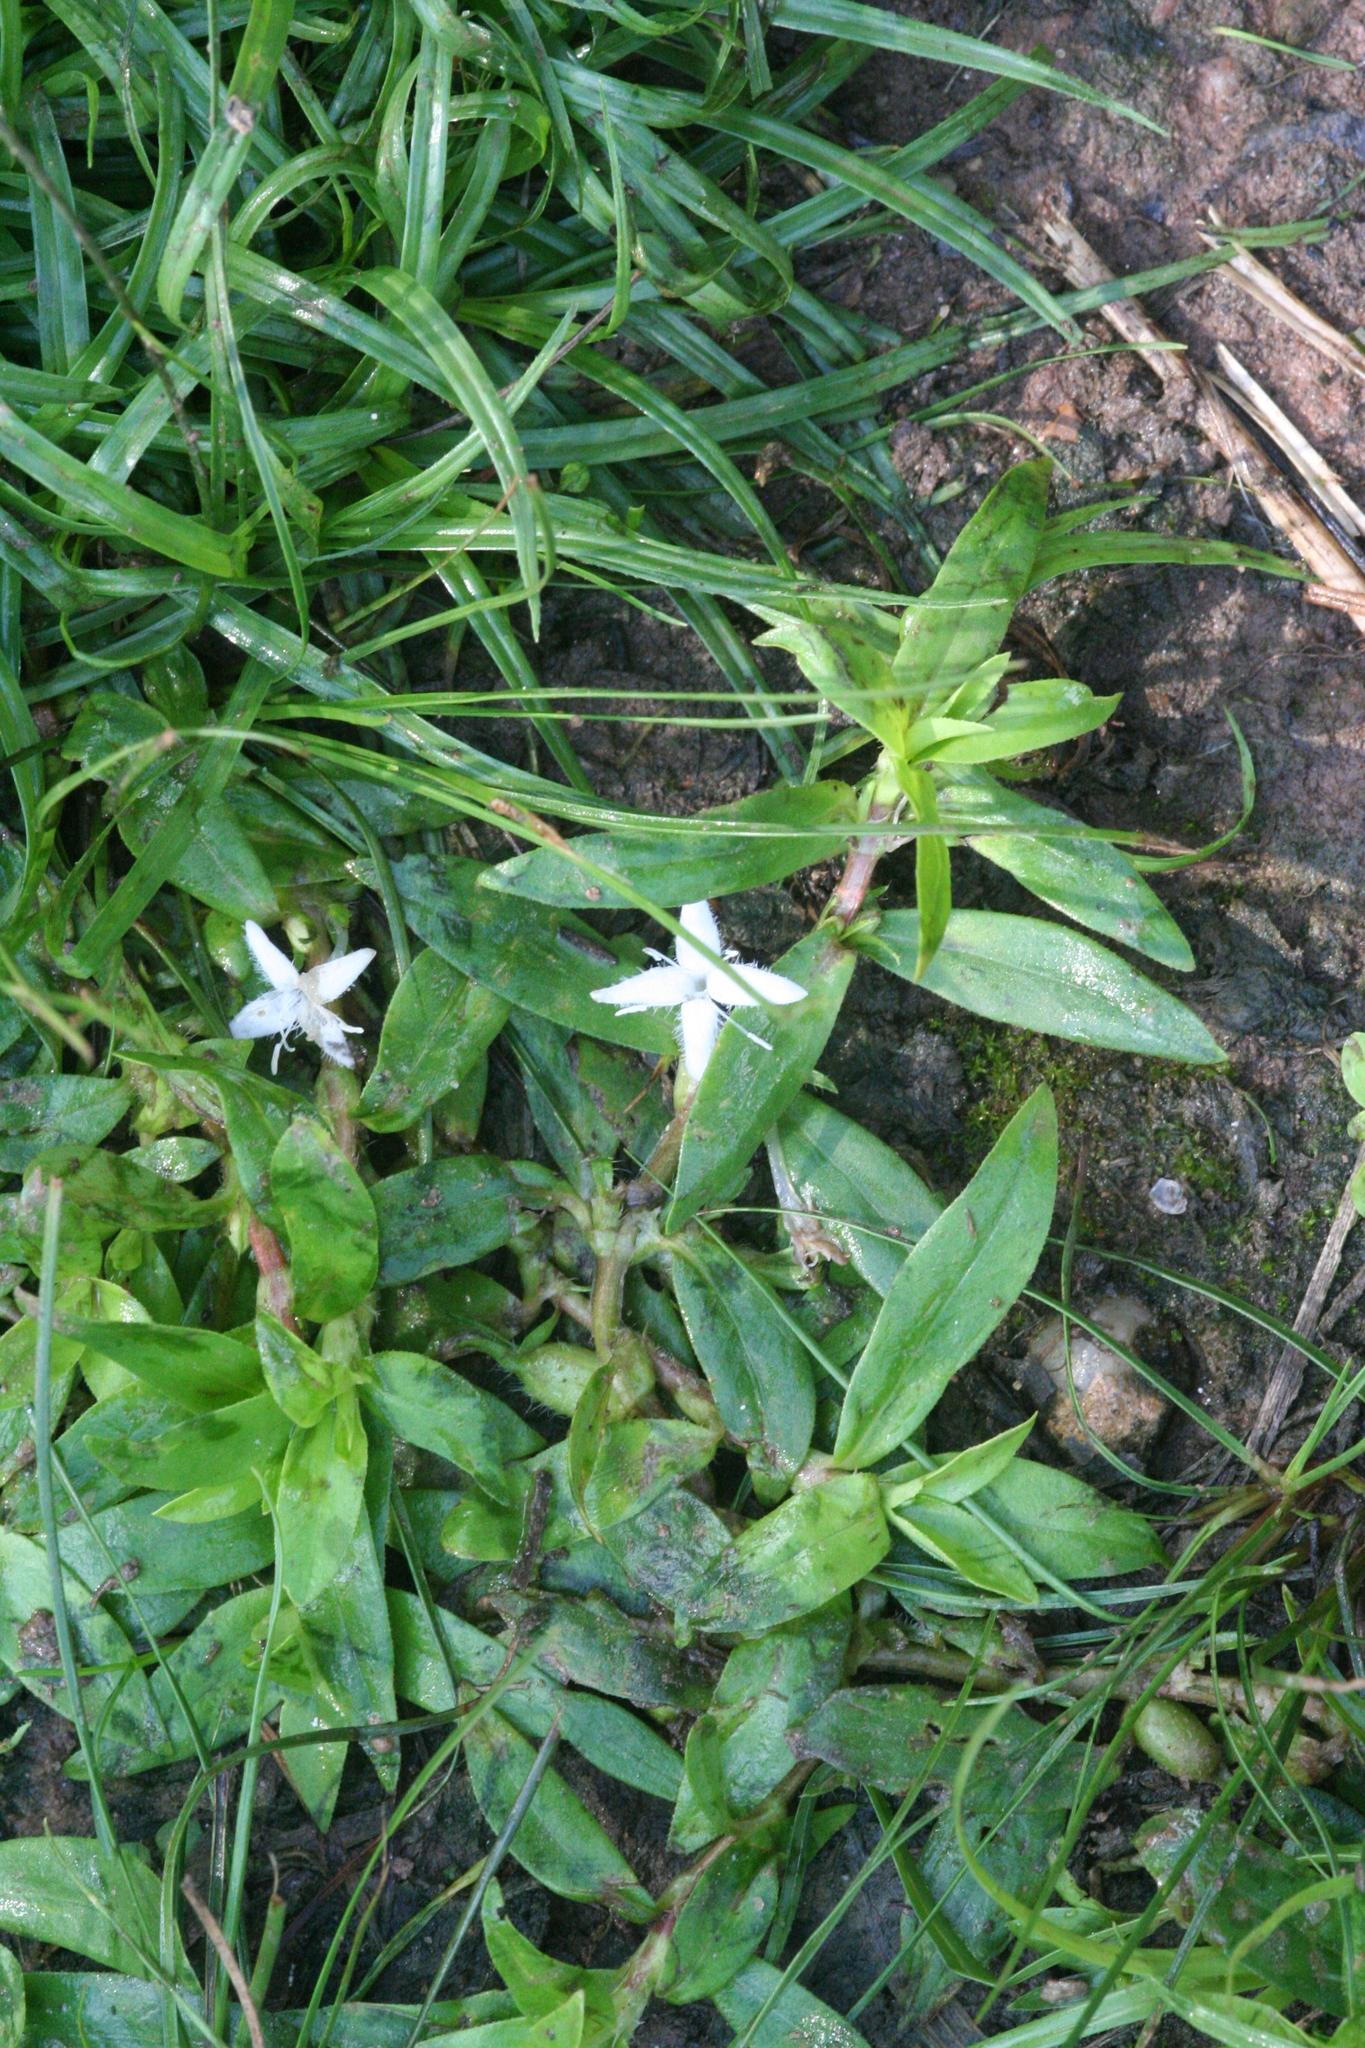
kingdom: Plantae
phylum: Tracheophyta
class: Magnoliopsida
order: Gentianales
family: Rubiaceae
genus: Diodia
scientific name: Diodia virginiana
